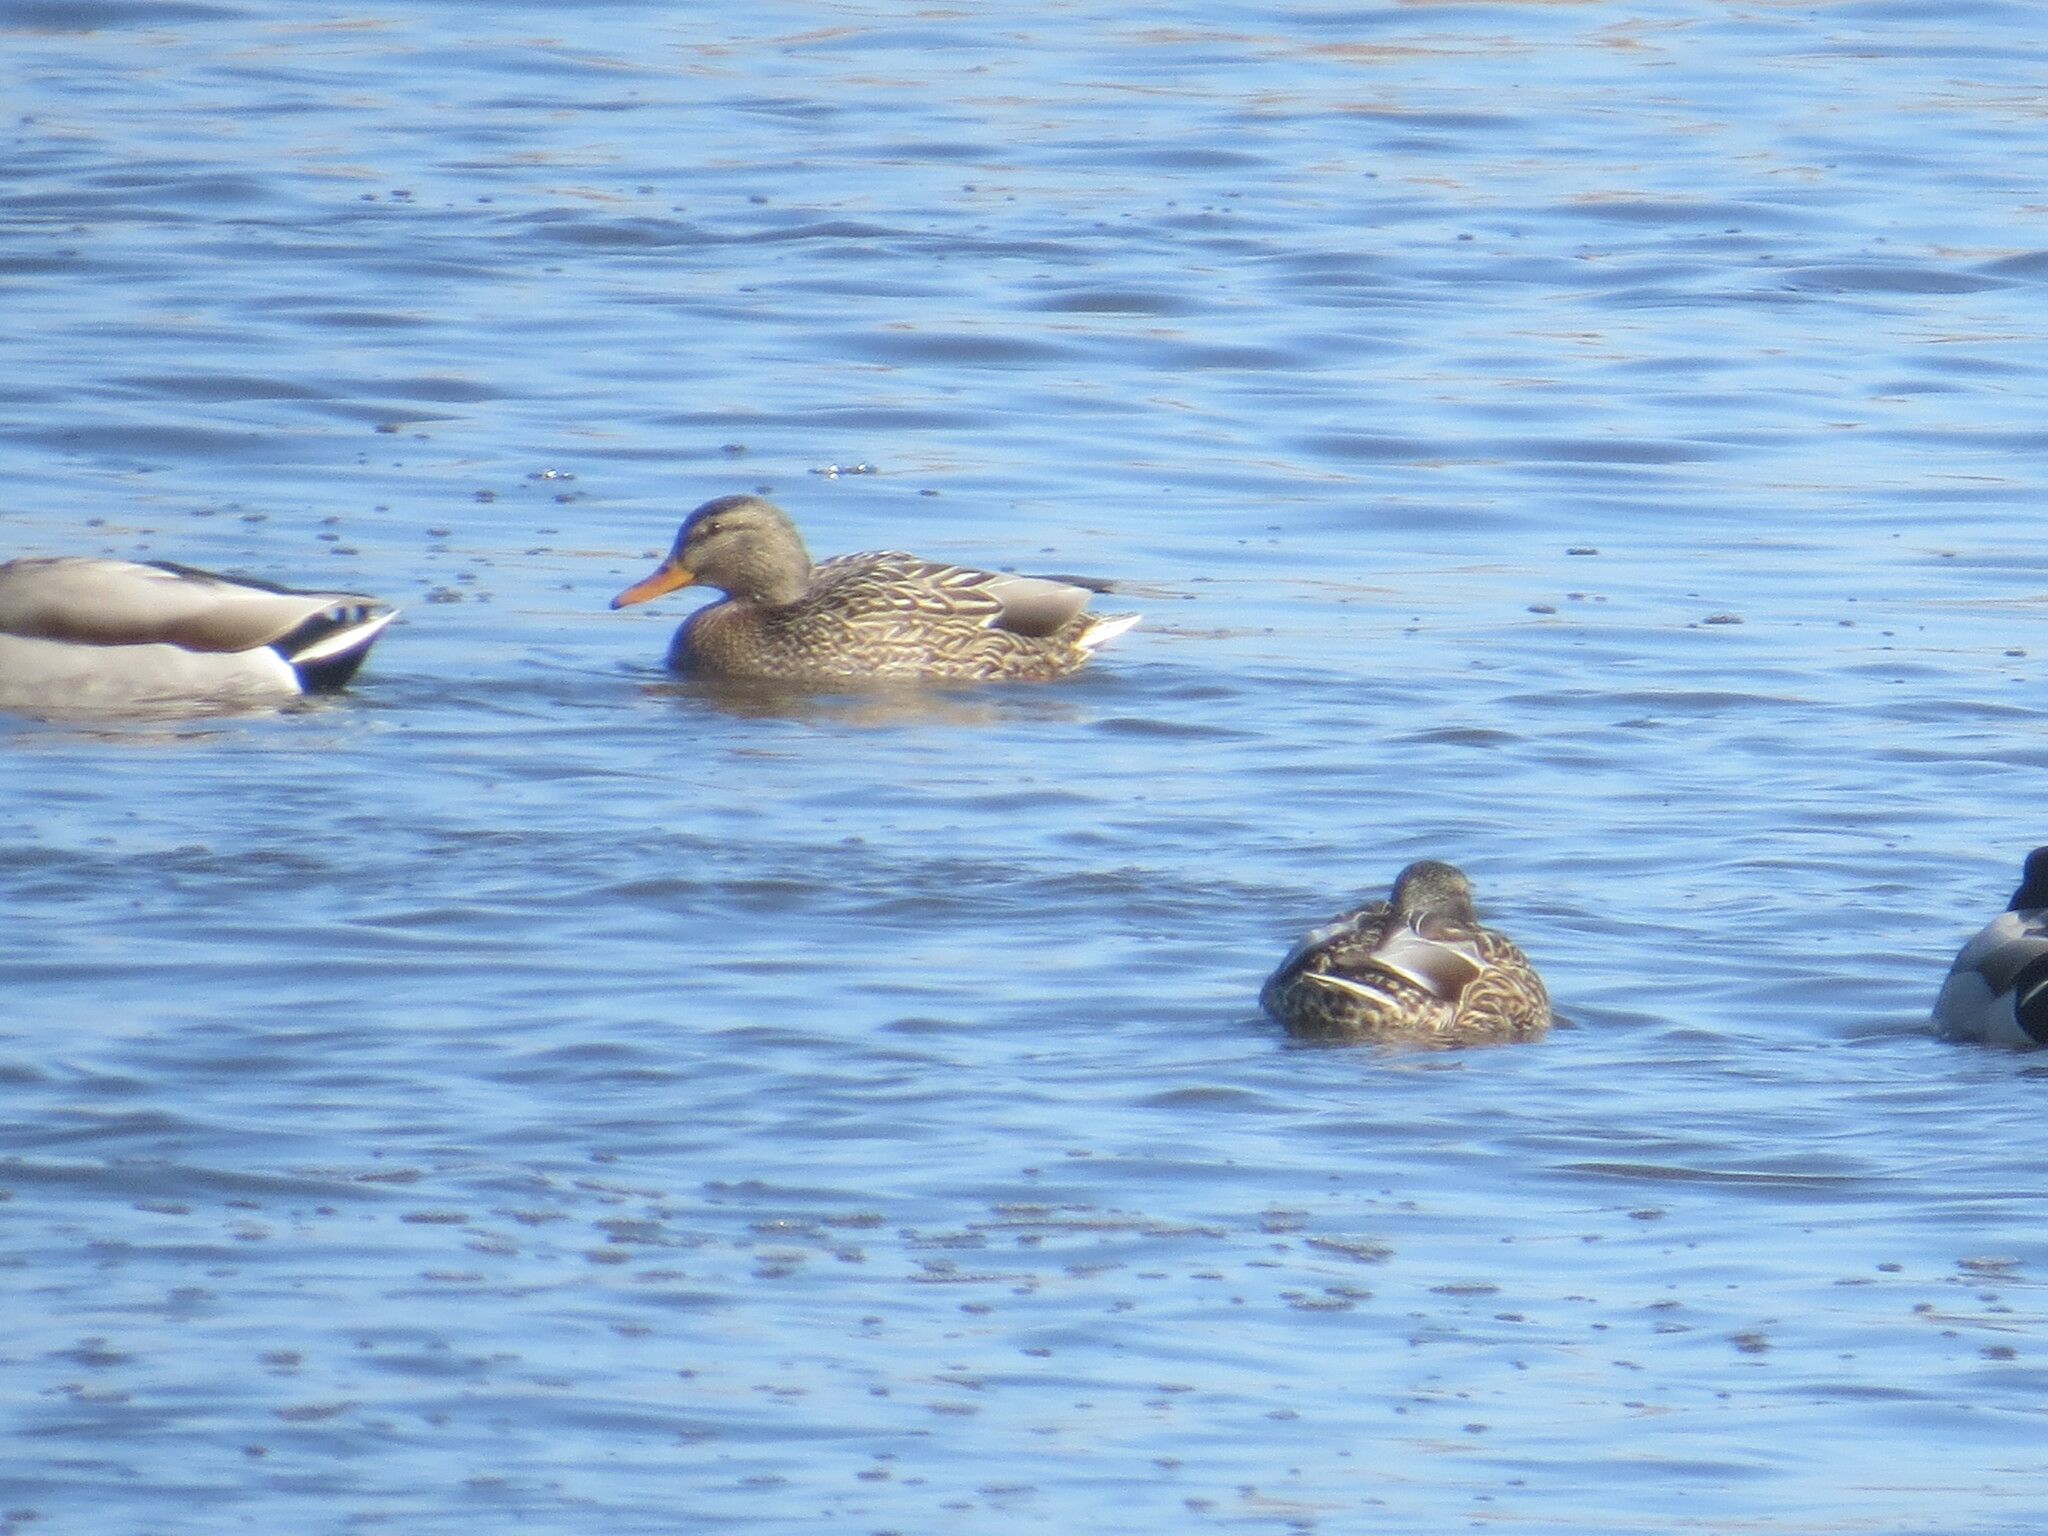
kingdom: Animalia
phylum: Chordata
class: Aves
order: Anseriformes
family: Anatidae
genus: Anas
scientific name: Anas platyrhynchos
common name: Mallard
